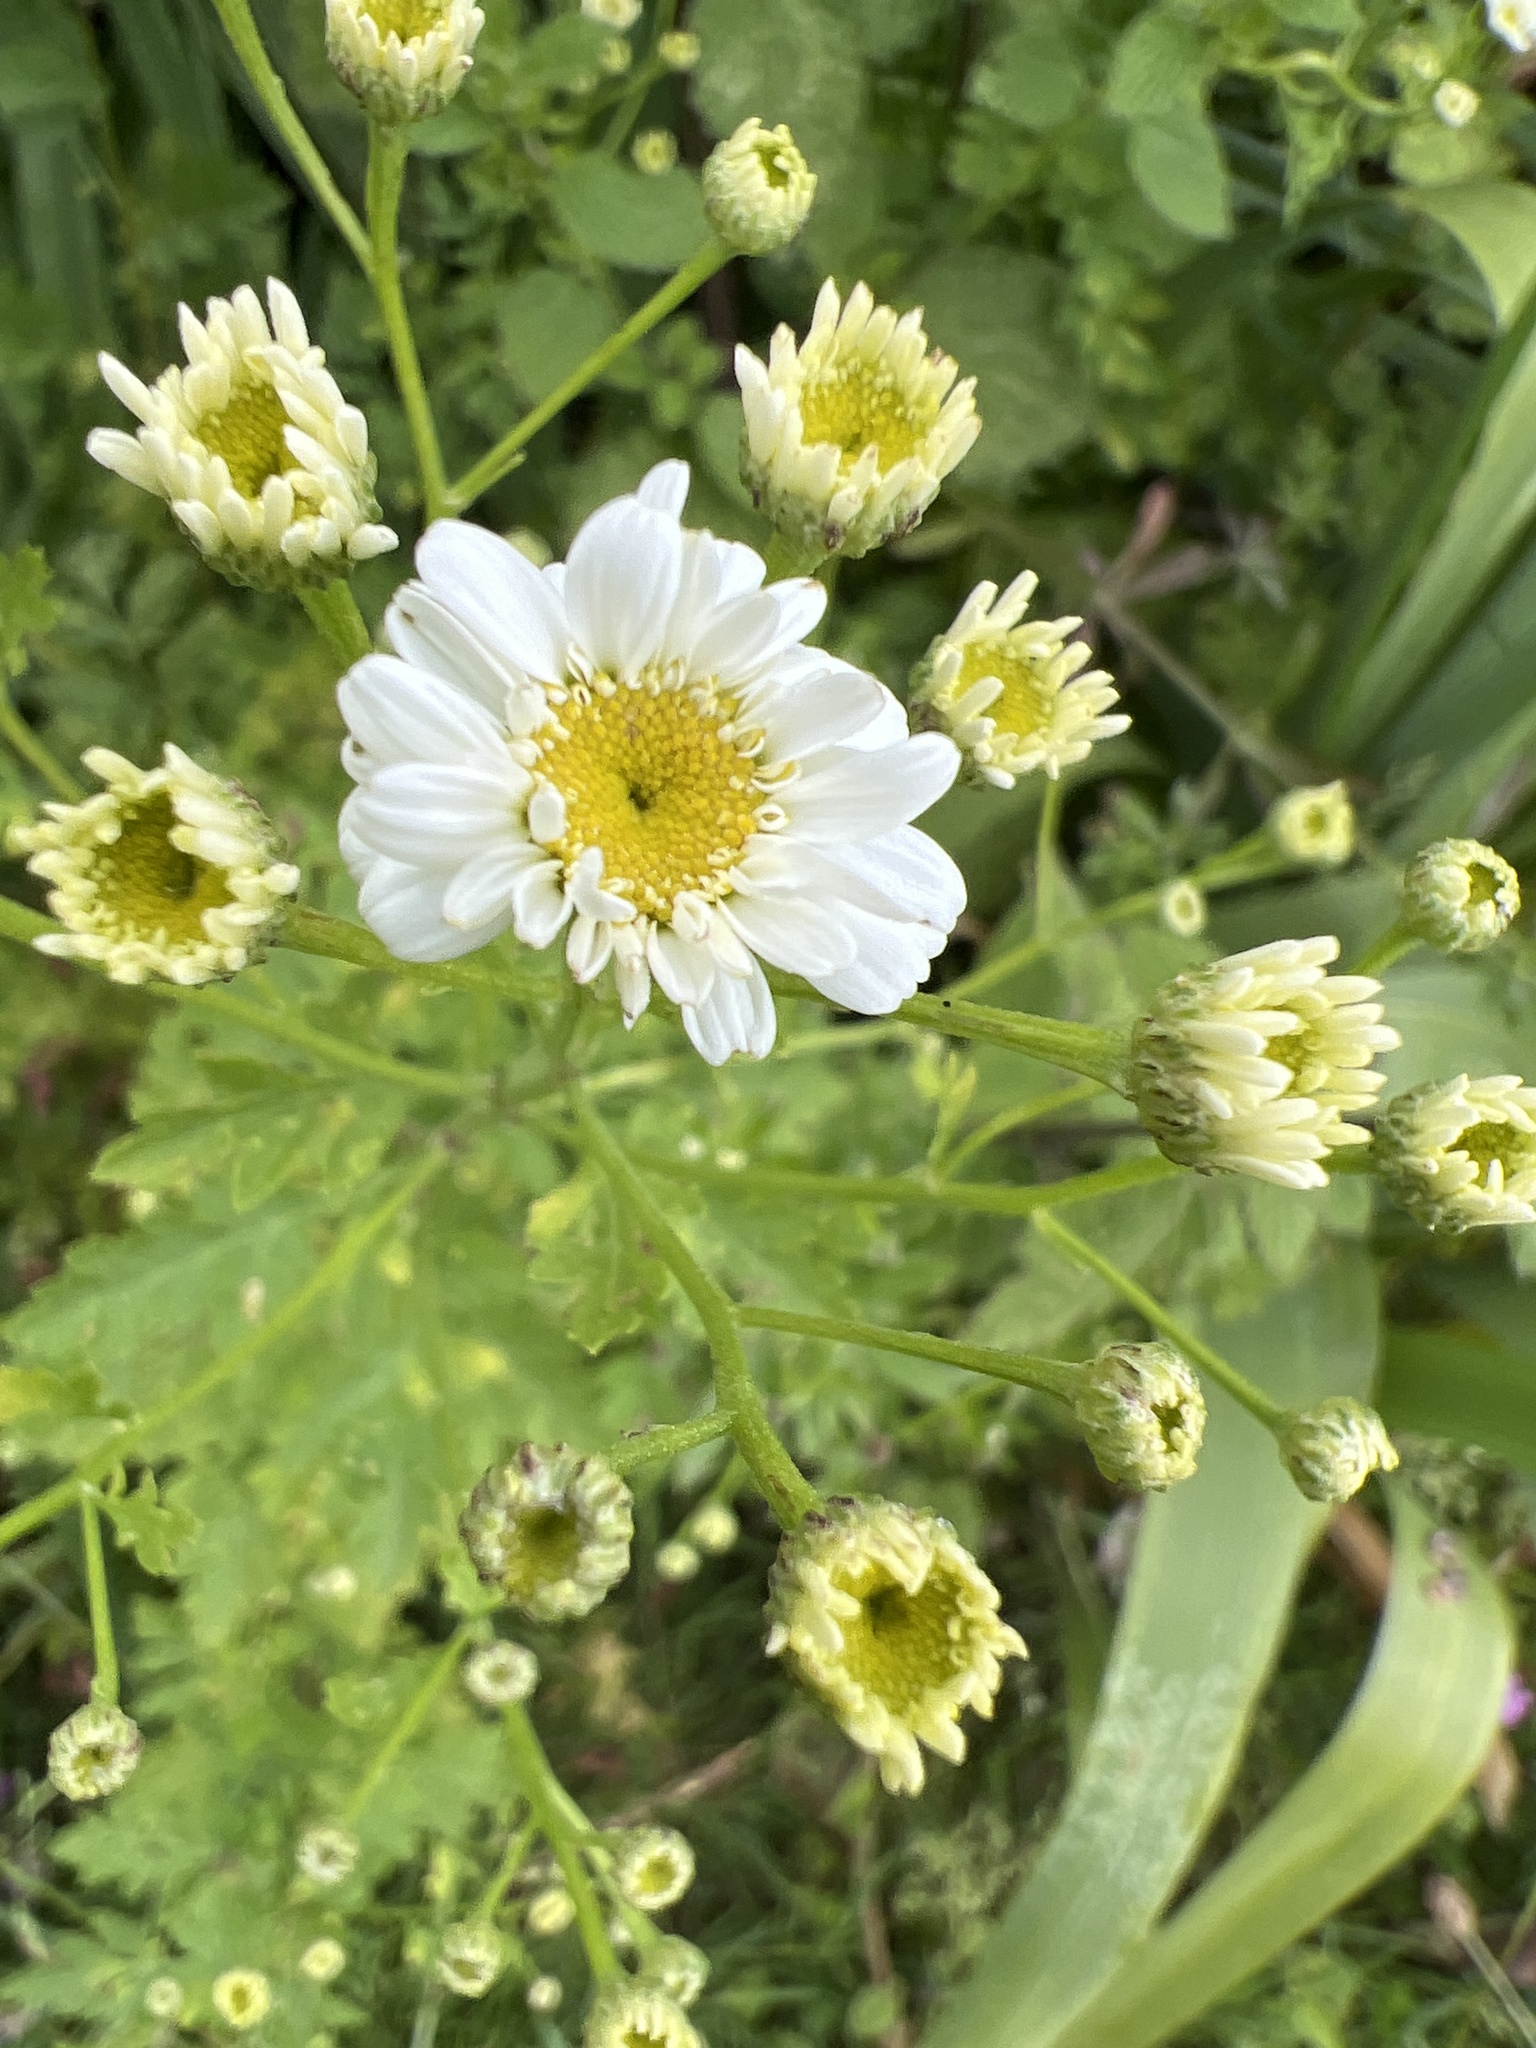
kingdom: Plantae
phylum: Tracheophyta
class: Magnoliopsida
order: Asterales
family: Asteraceae
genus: Tanacetum
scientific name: Tanacetum parthenium
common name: Feverfew
